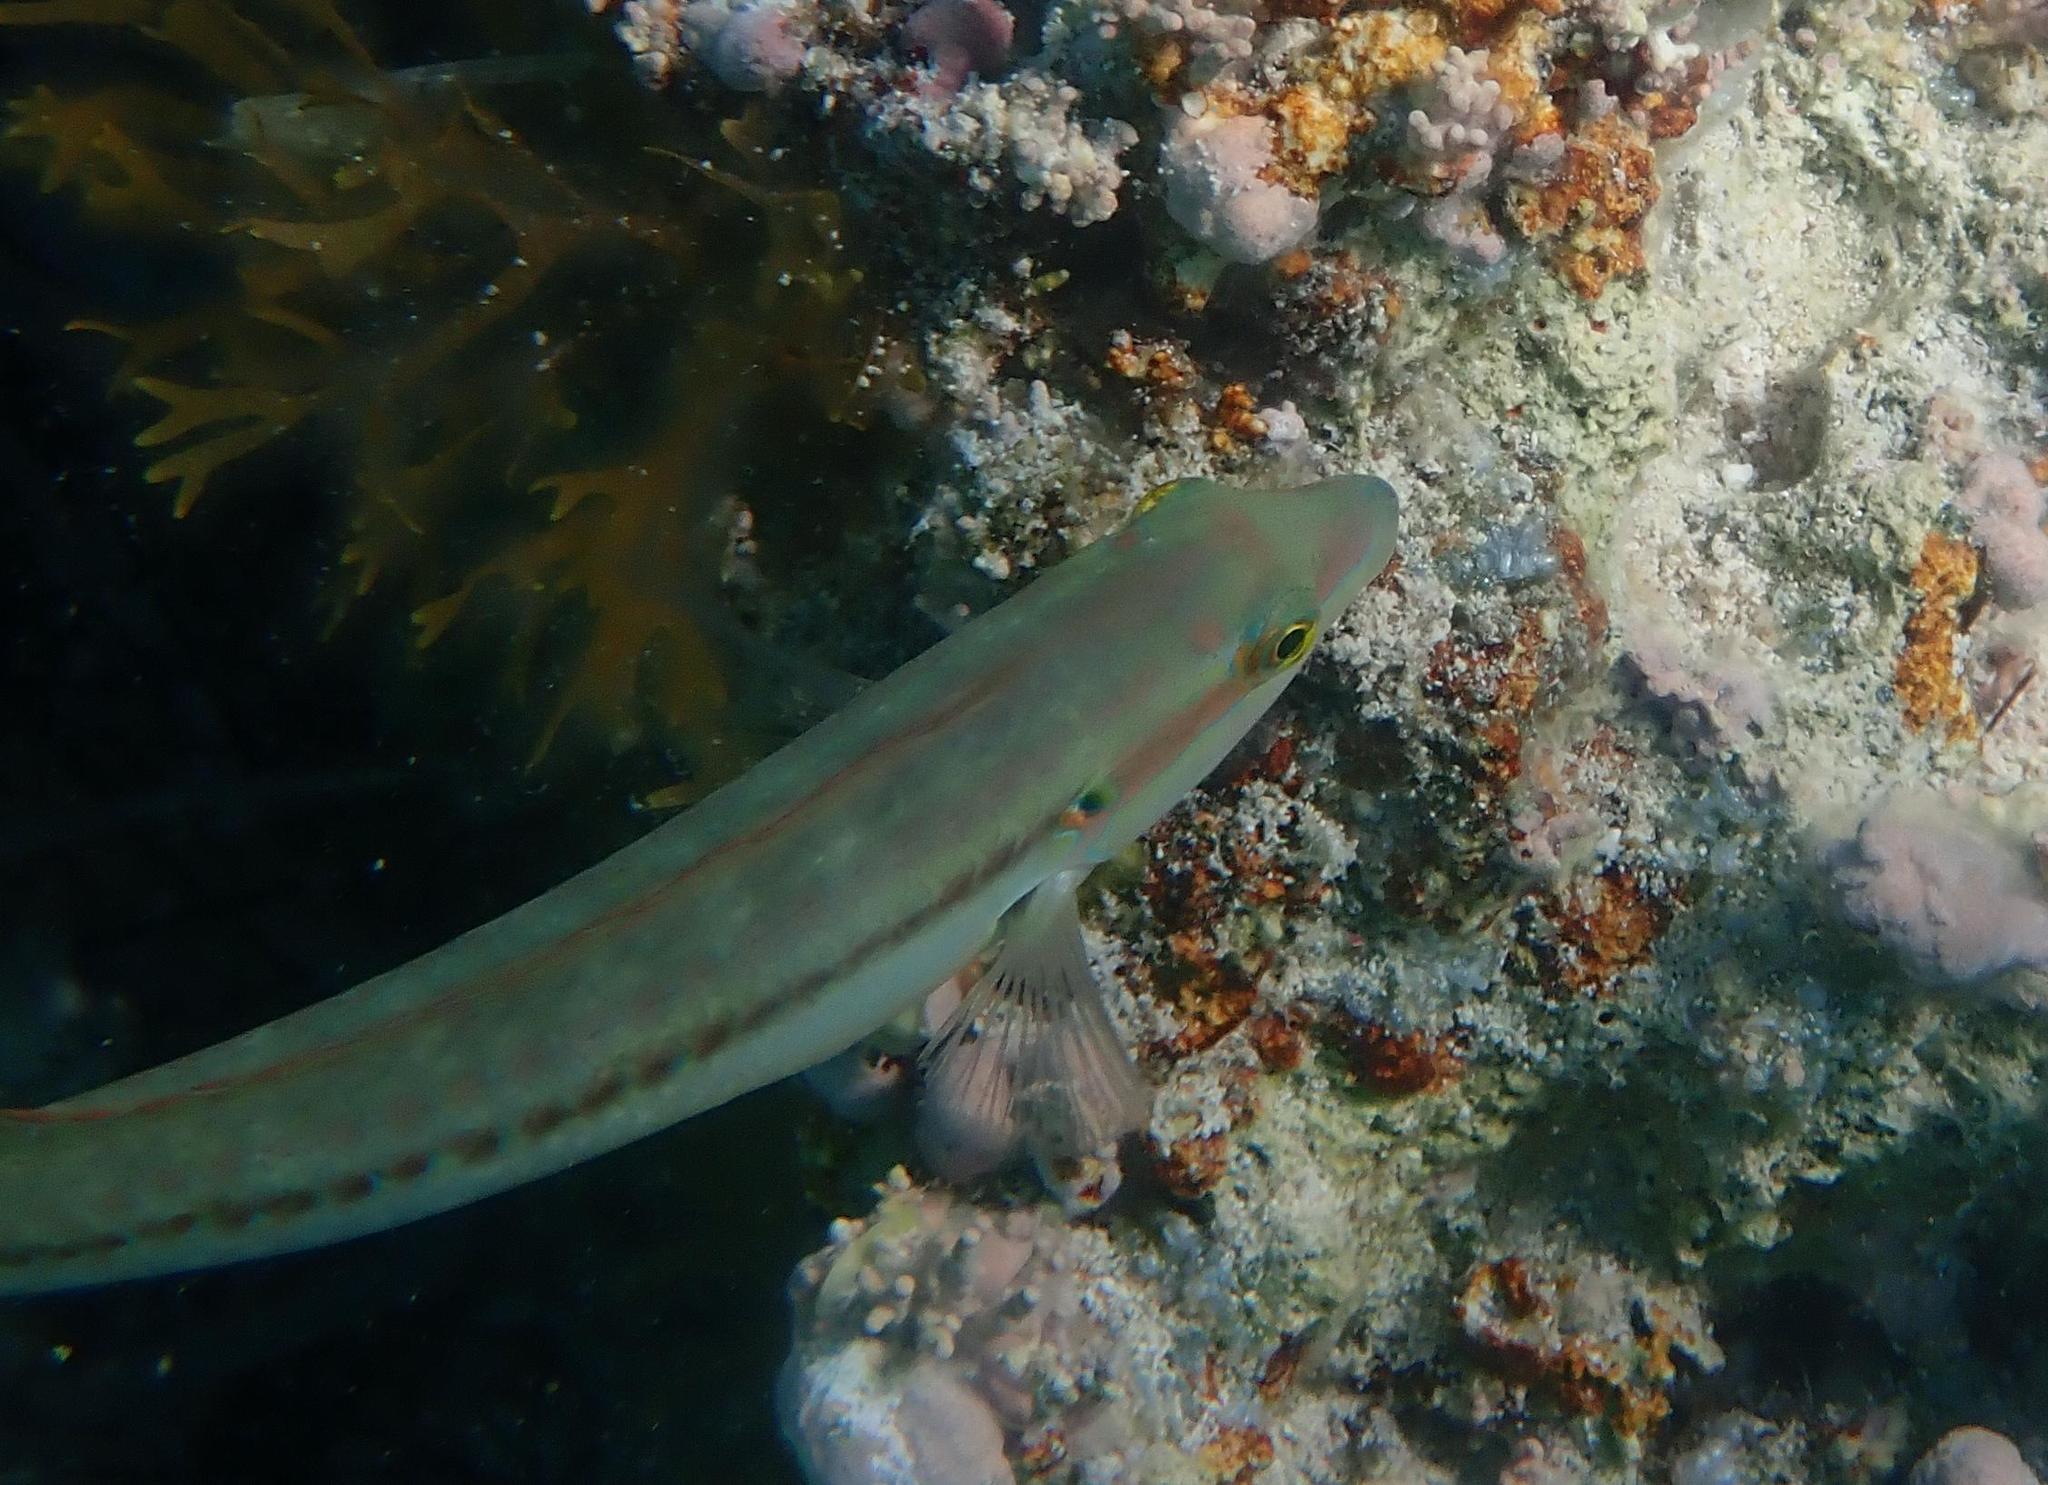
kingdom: Animalia
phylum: Chordata
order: Perciformes
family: Labridae
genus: Halichoeres
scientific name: Halichoeres bivittatus
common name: Slippery dick
